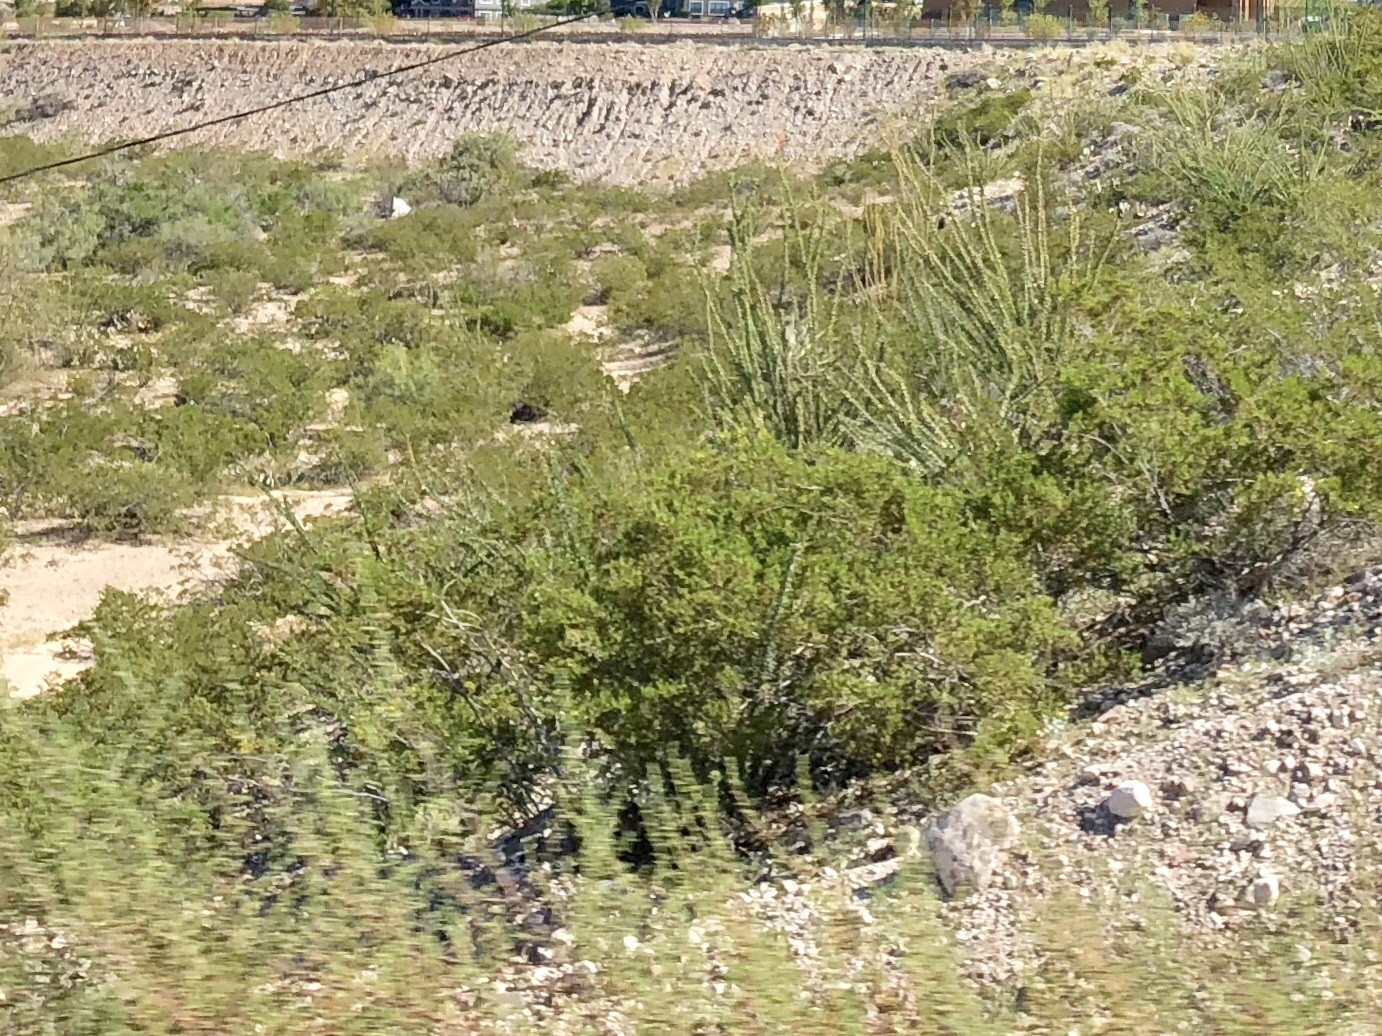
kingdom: Plantae
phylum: Tracheophyta
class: Magnoliopsida
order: Zygophyllales
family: Zygophyllaceae
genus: Larrea
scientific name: Larrea tridentata
